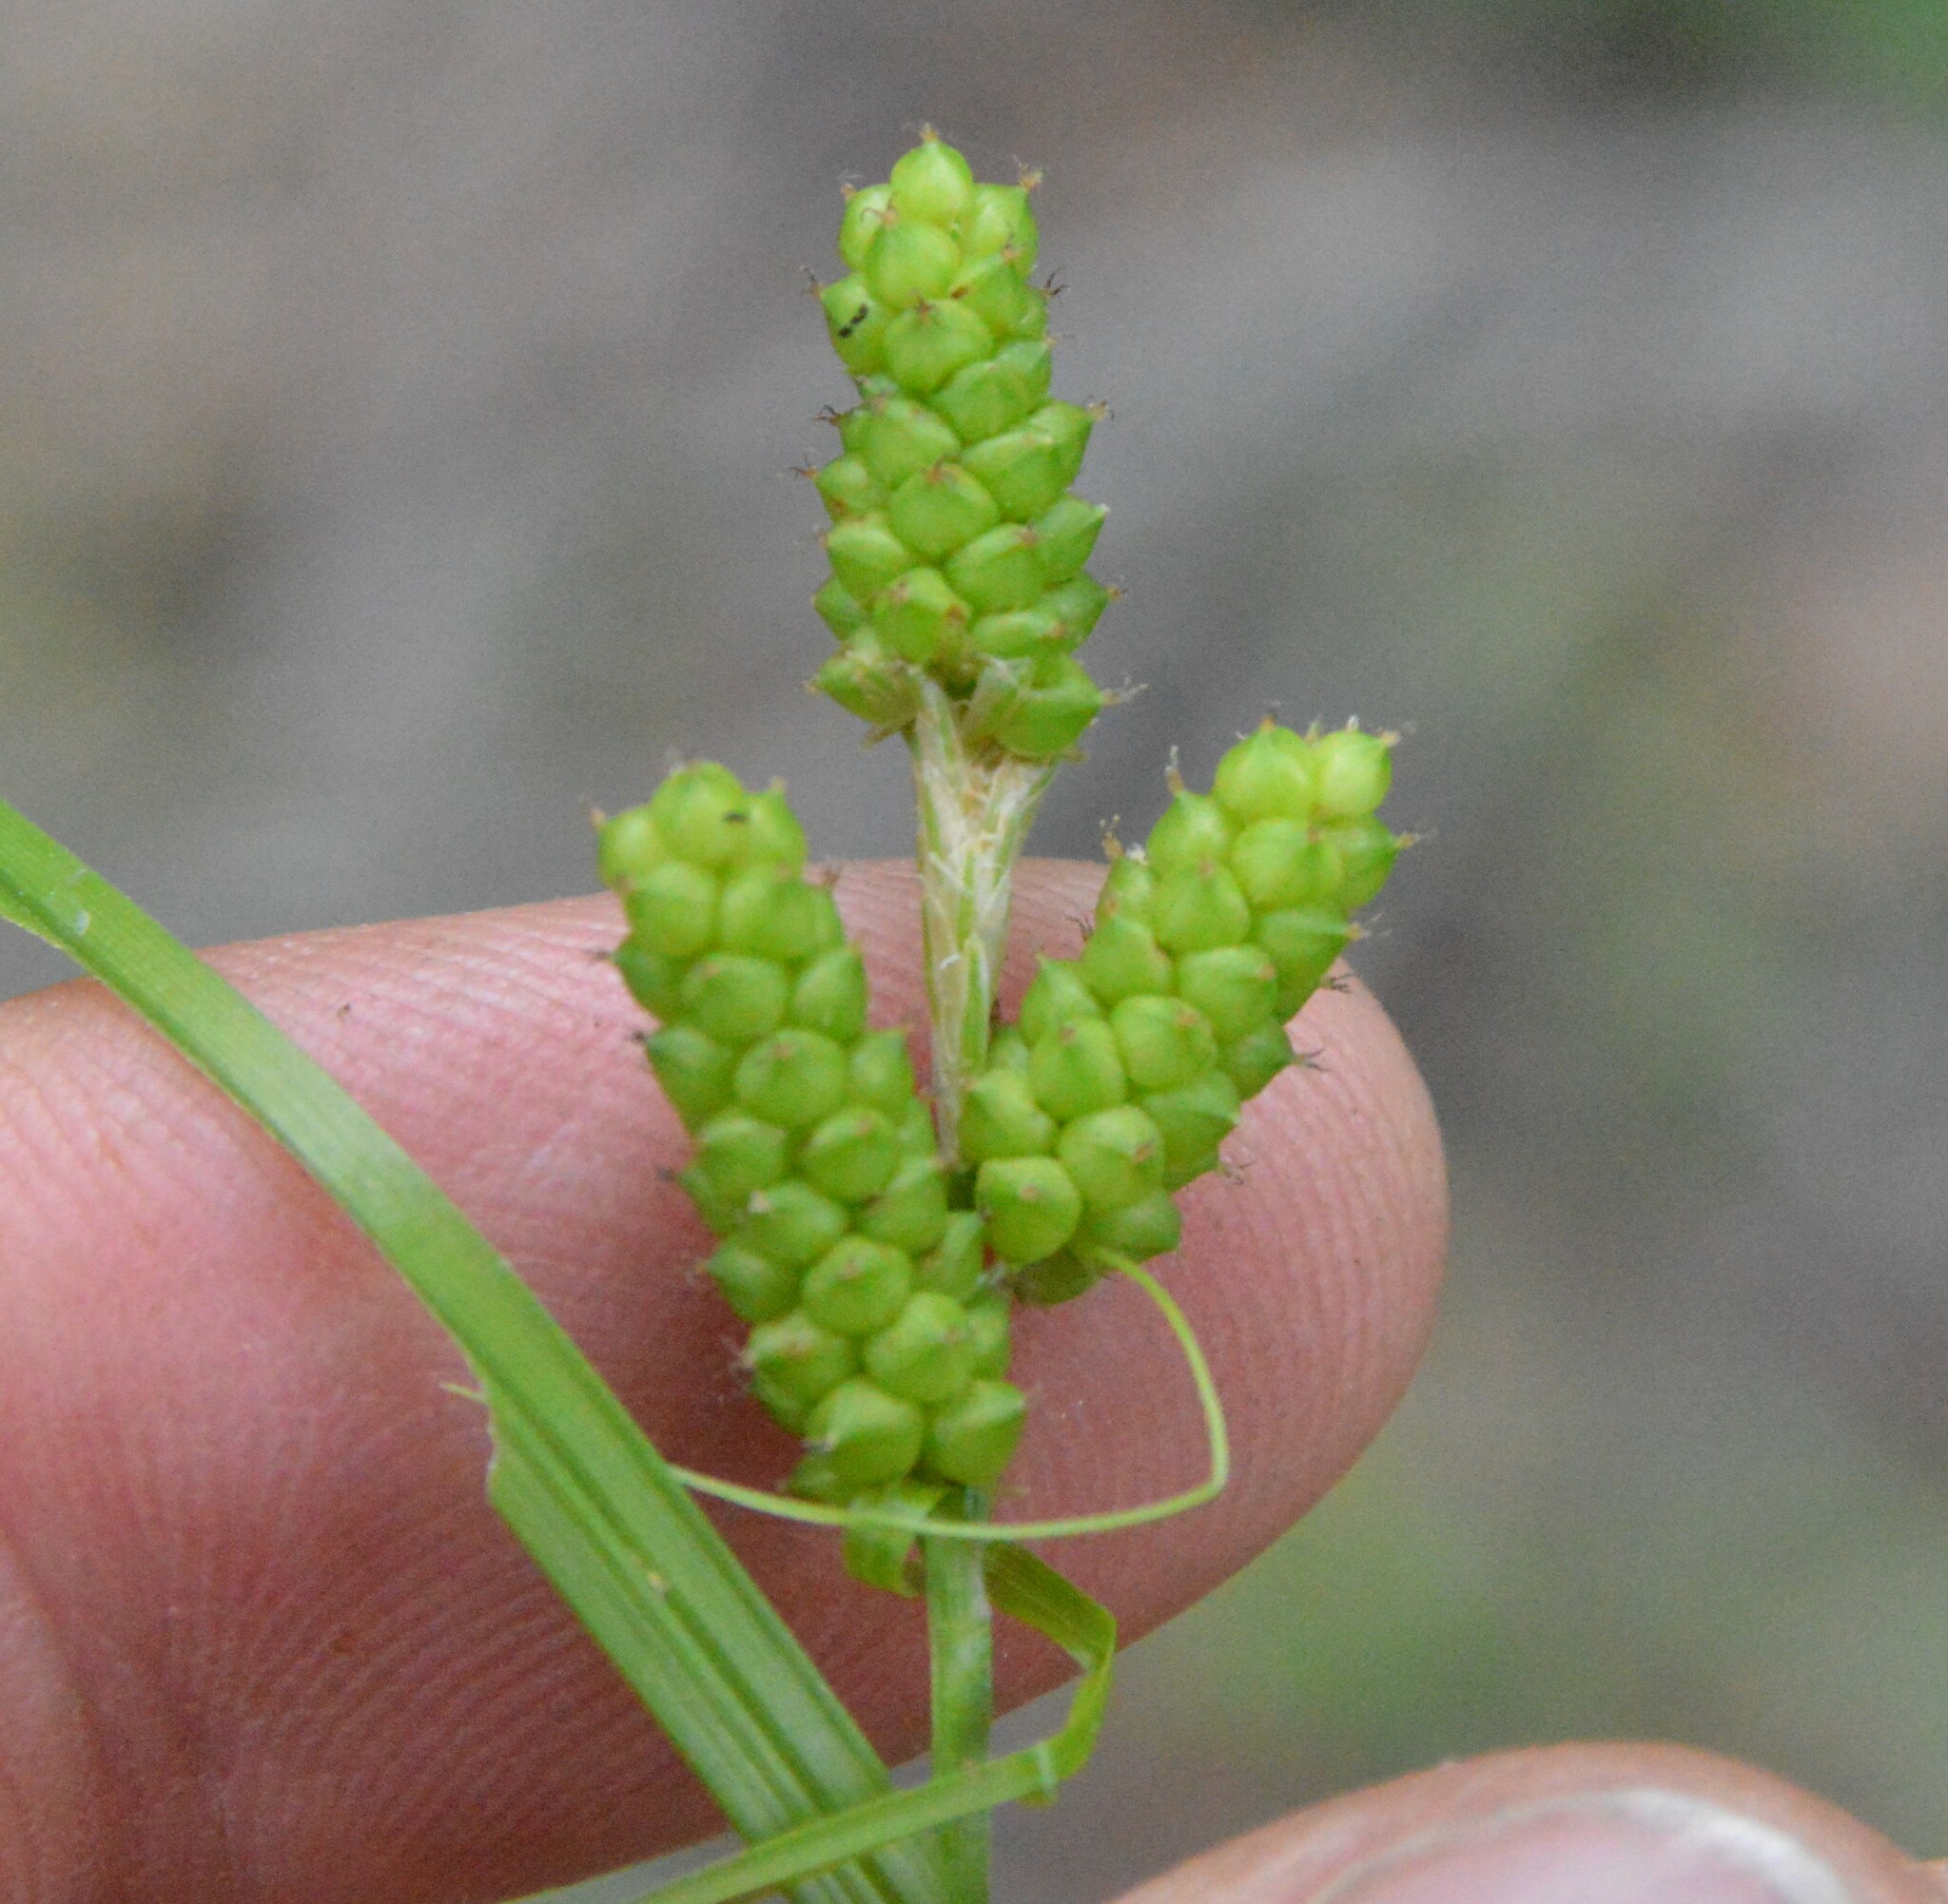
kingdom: Plantae
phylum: Tracheophyta
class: Liliopsida
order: Poales
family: Cyperaceae
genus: Carex
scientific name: Carex caroliniana
